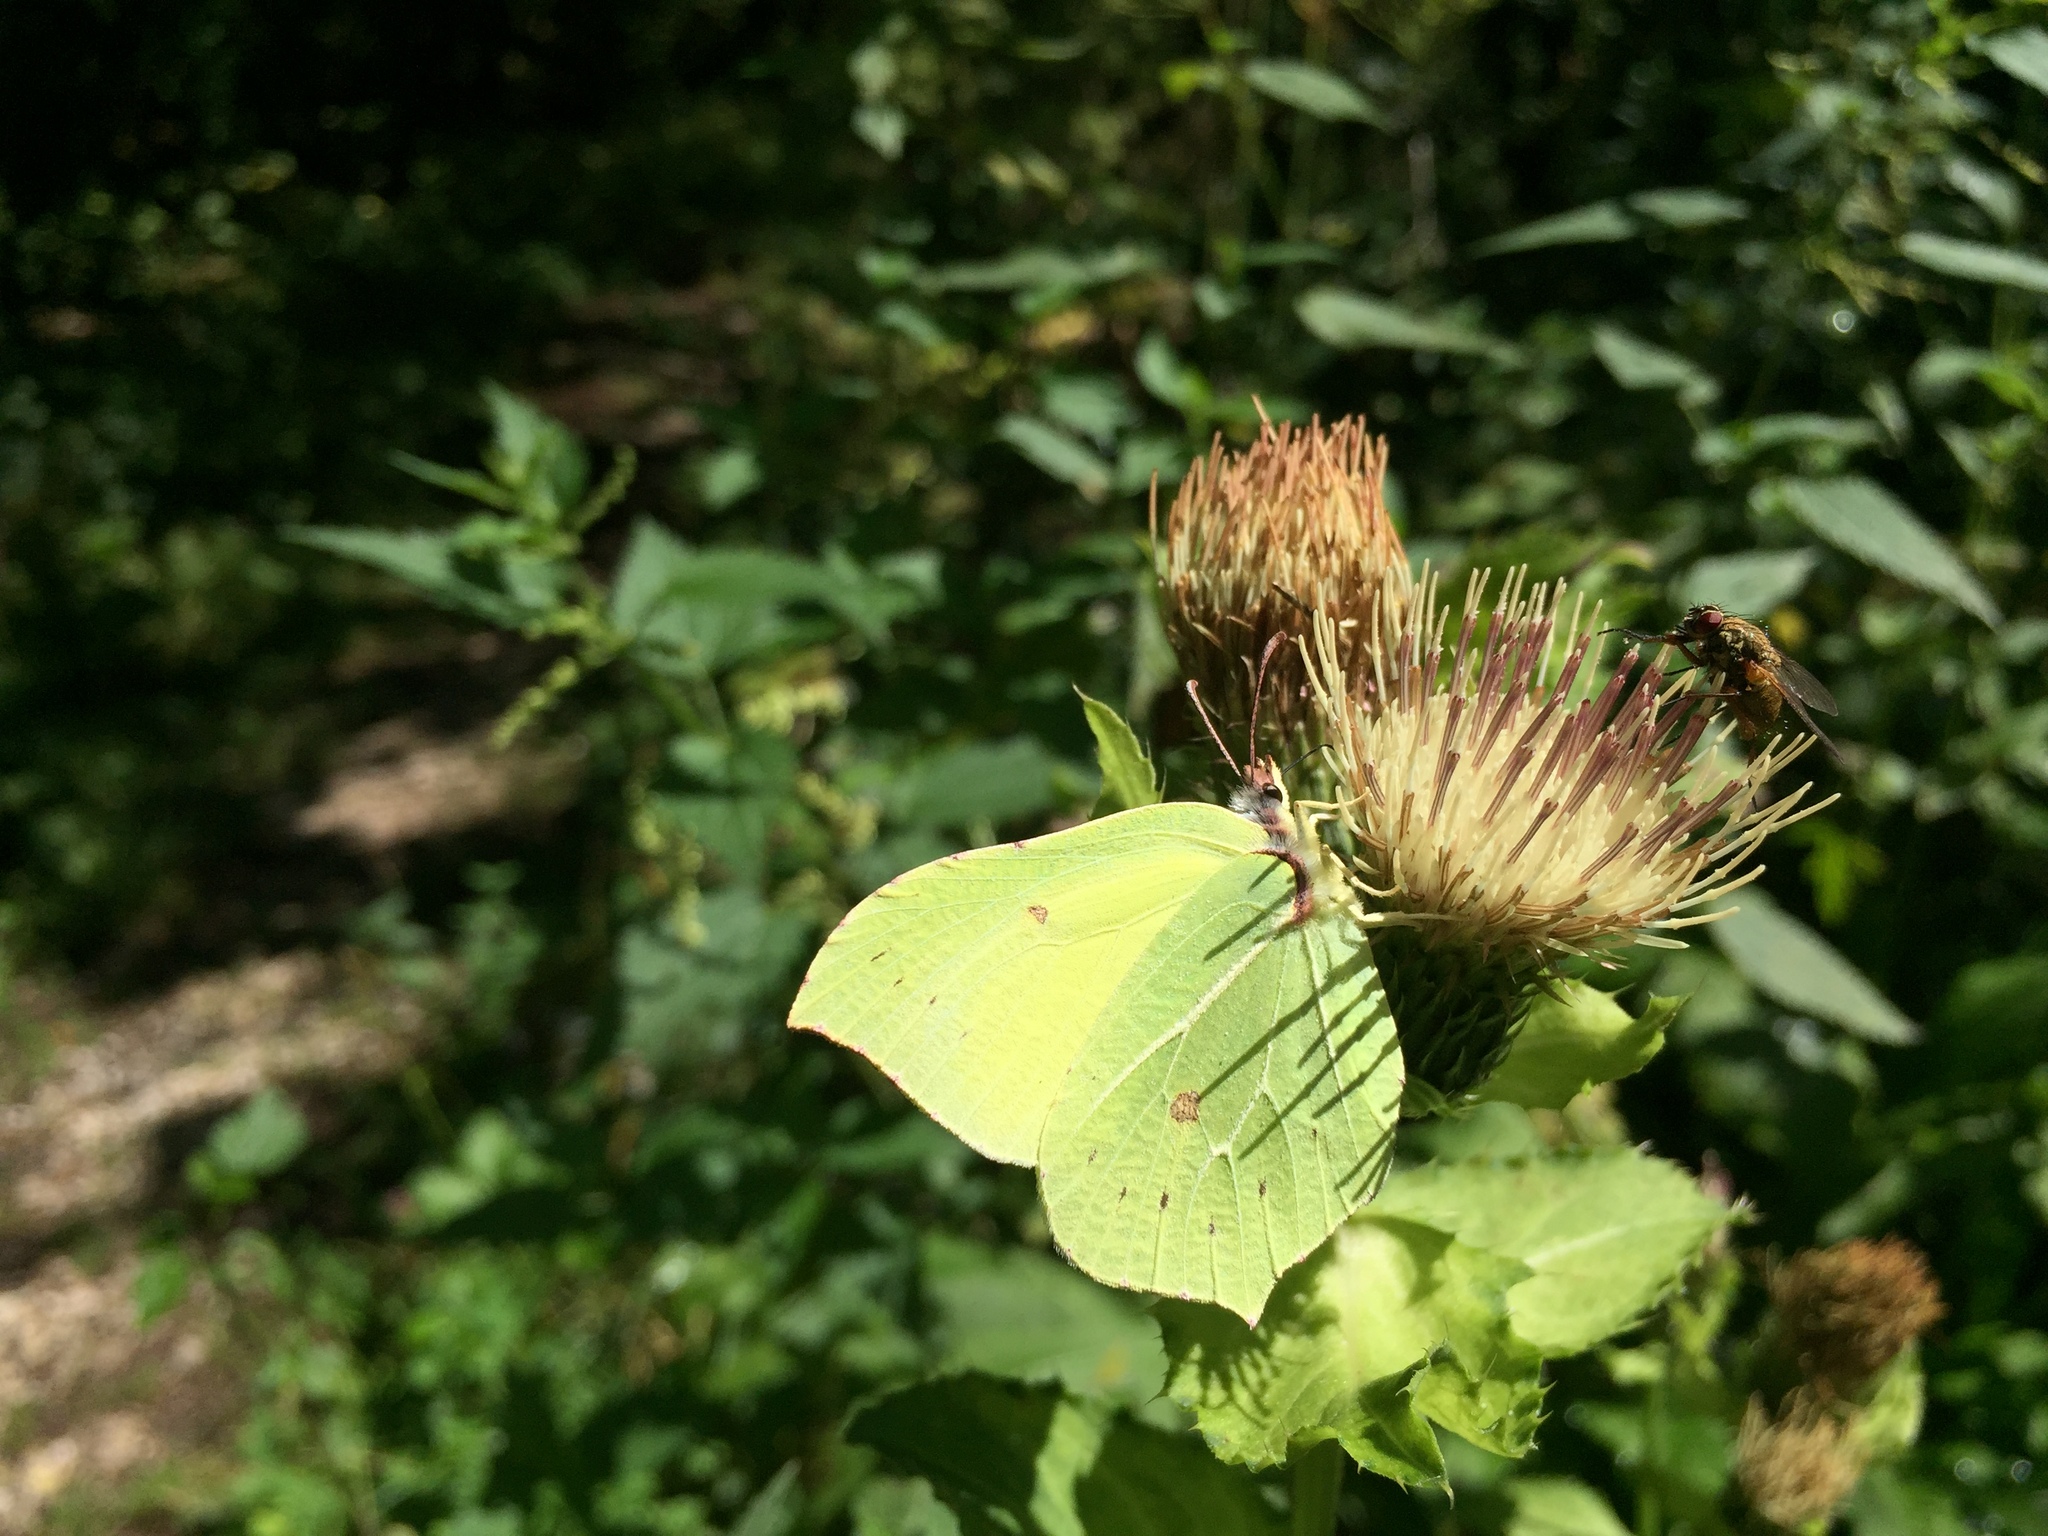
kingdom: Animalia
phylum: Arthropoda
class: Insecta
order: Lepidoptera
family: Pieridae
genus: Gonepteryx
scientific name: Gonepteryx rhamni
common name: Brimstone
